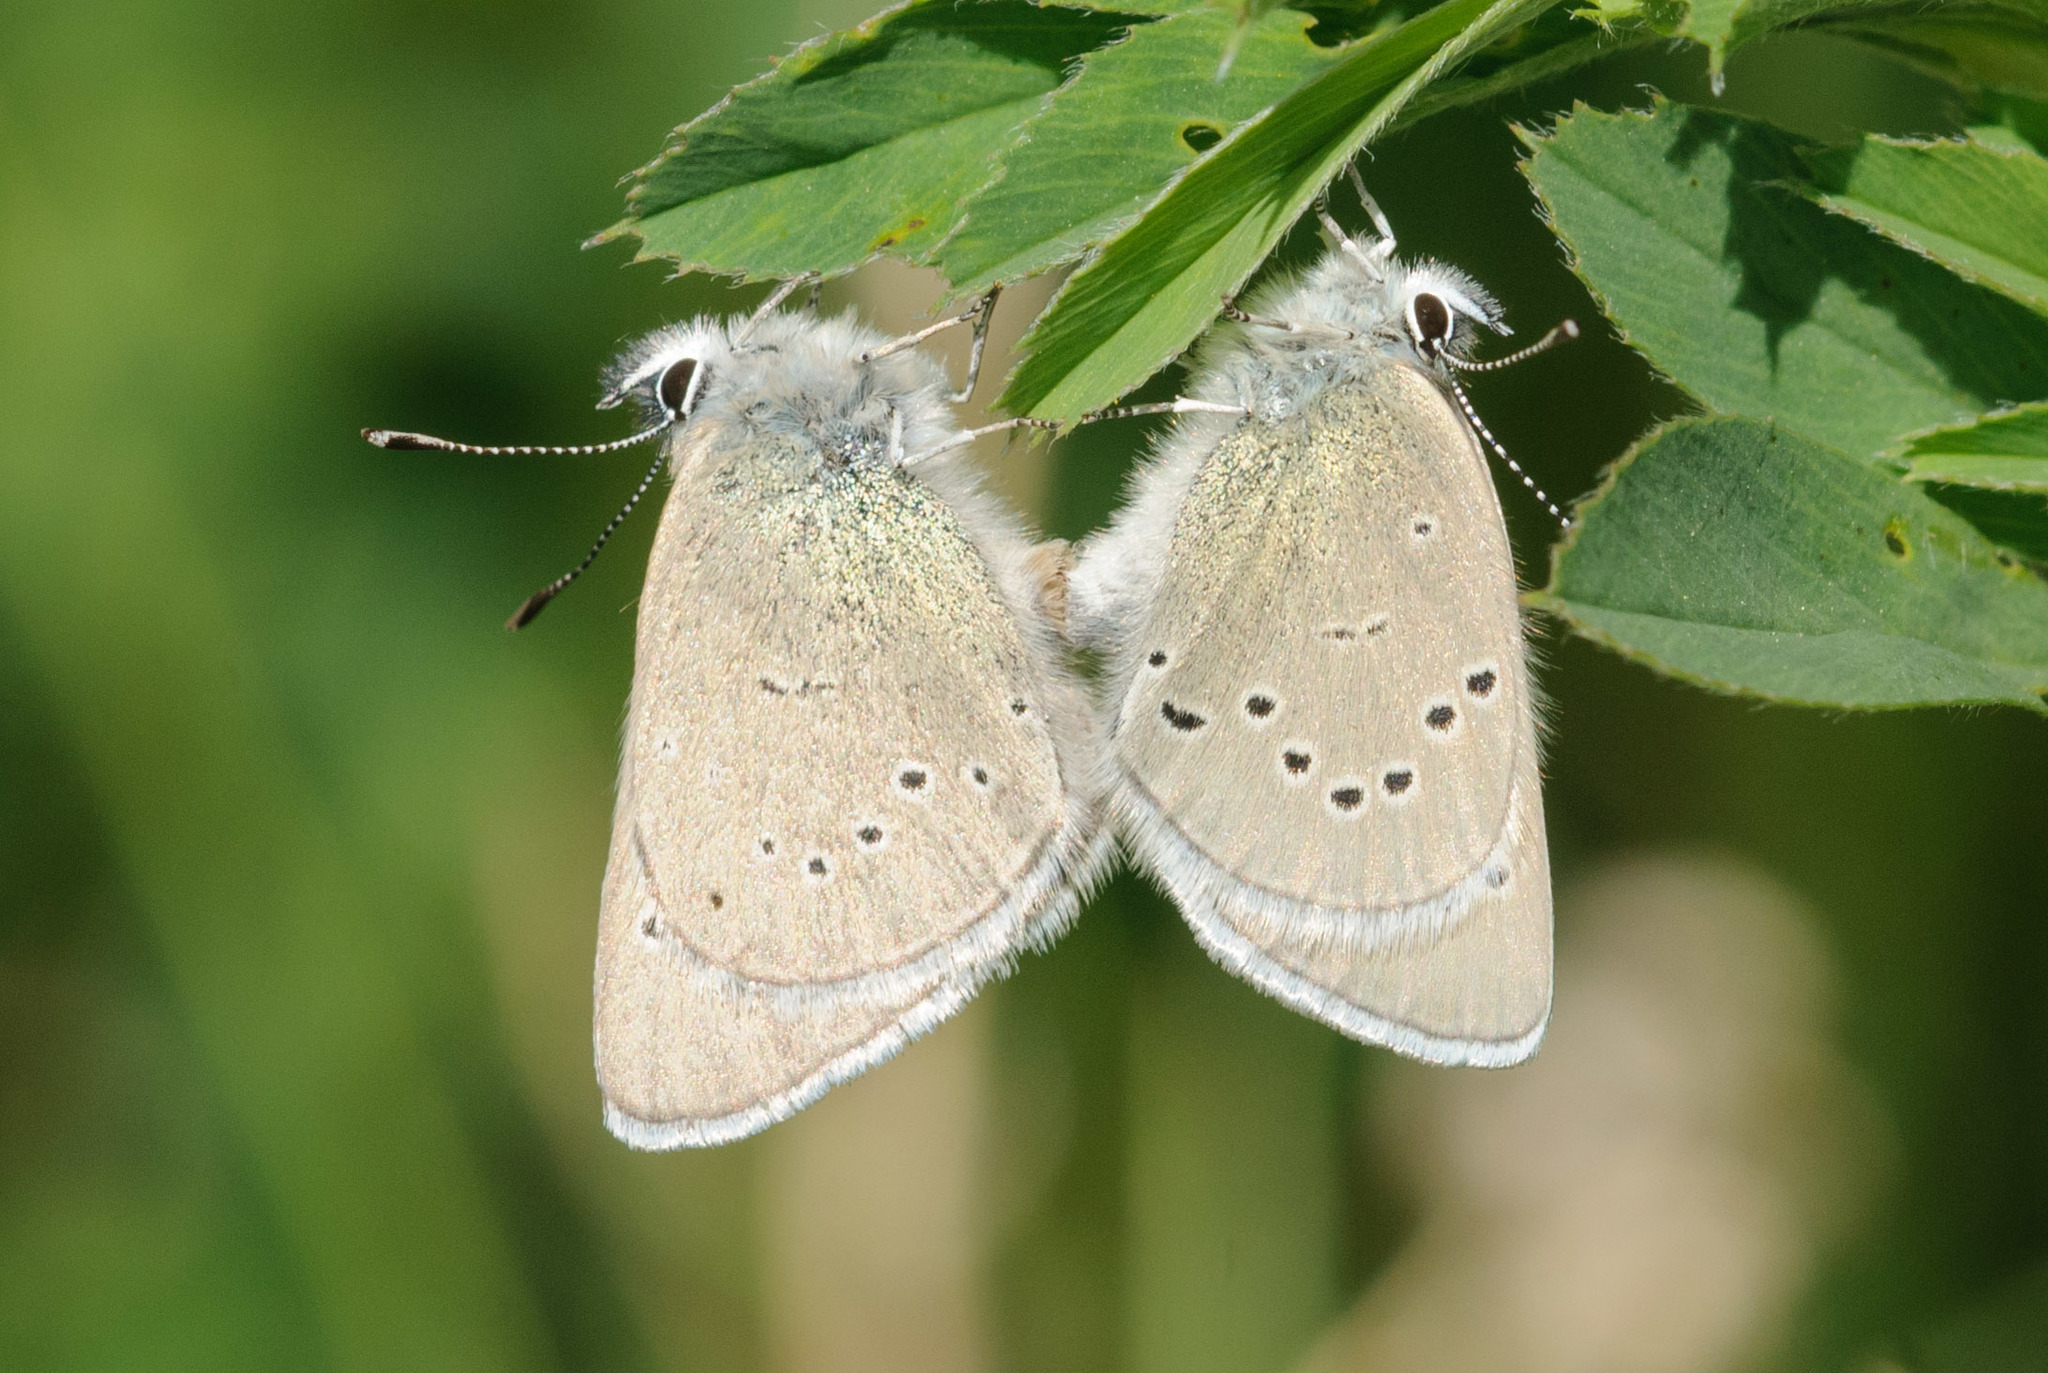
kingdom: Animalia
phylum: Arthropoda
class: Insecta
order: Lepidoptera
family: Lycaenidae
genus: Glaucopsyche
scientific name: Glaucopsyche lygdamus
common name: Silvery blue
